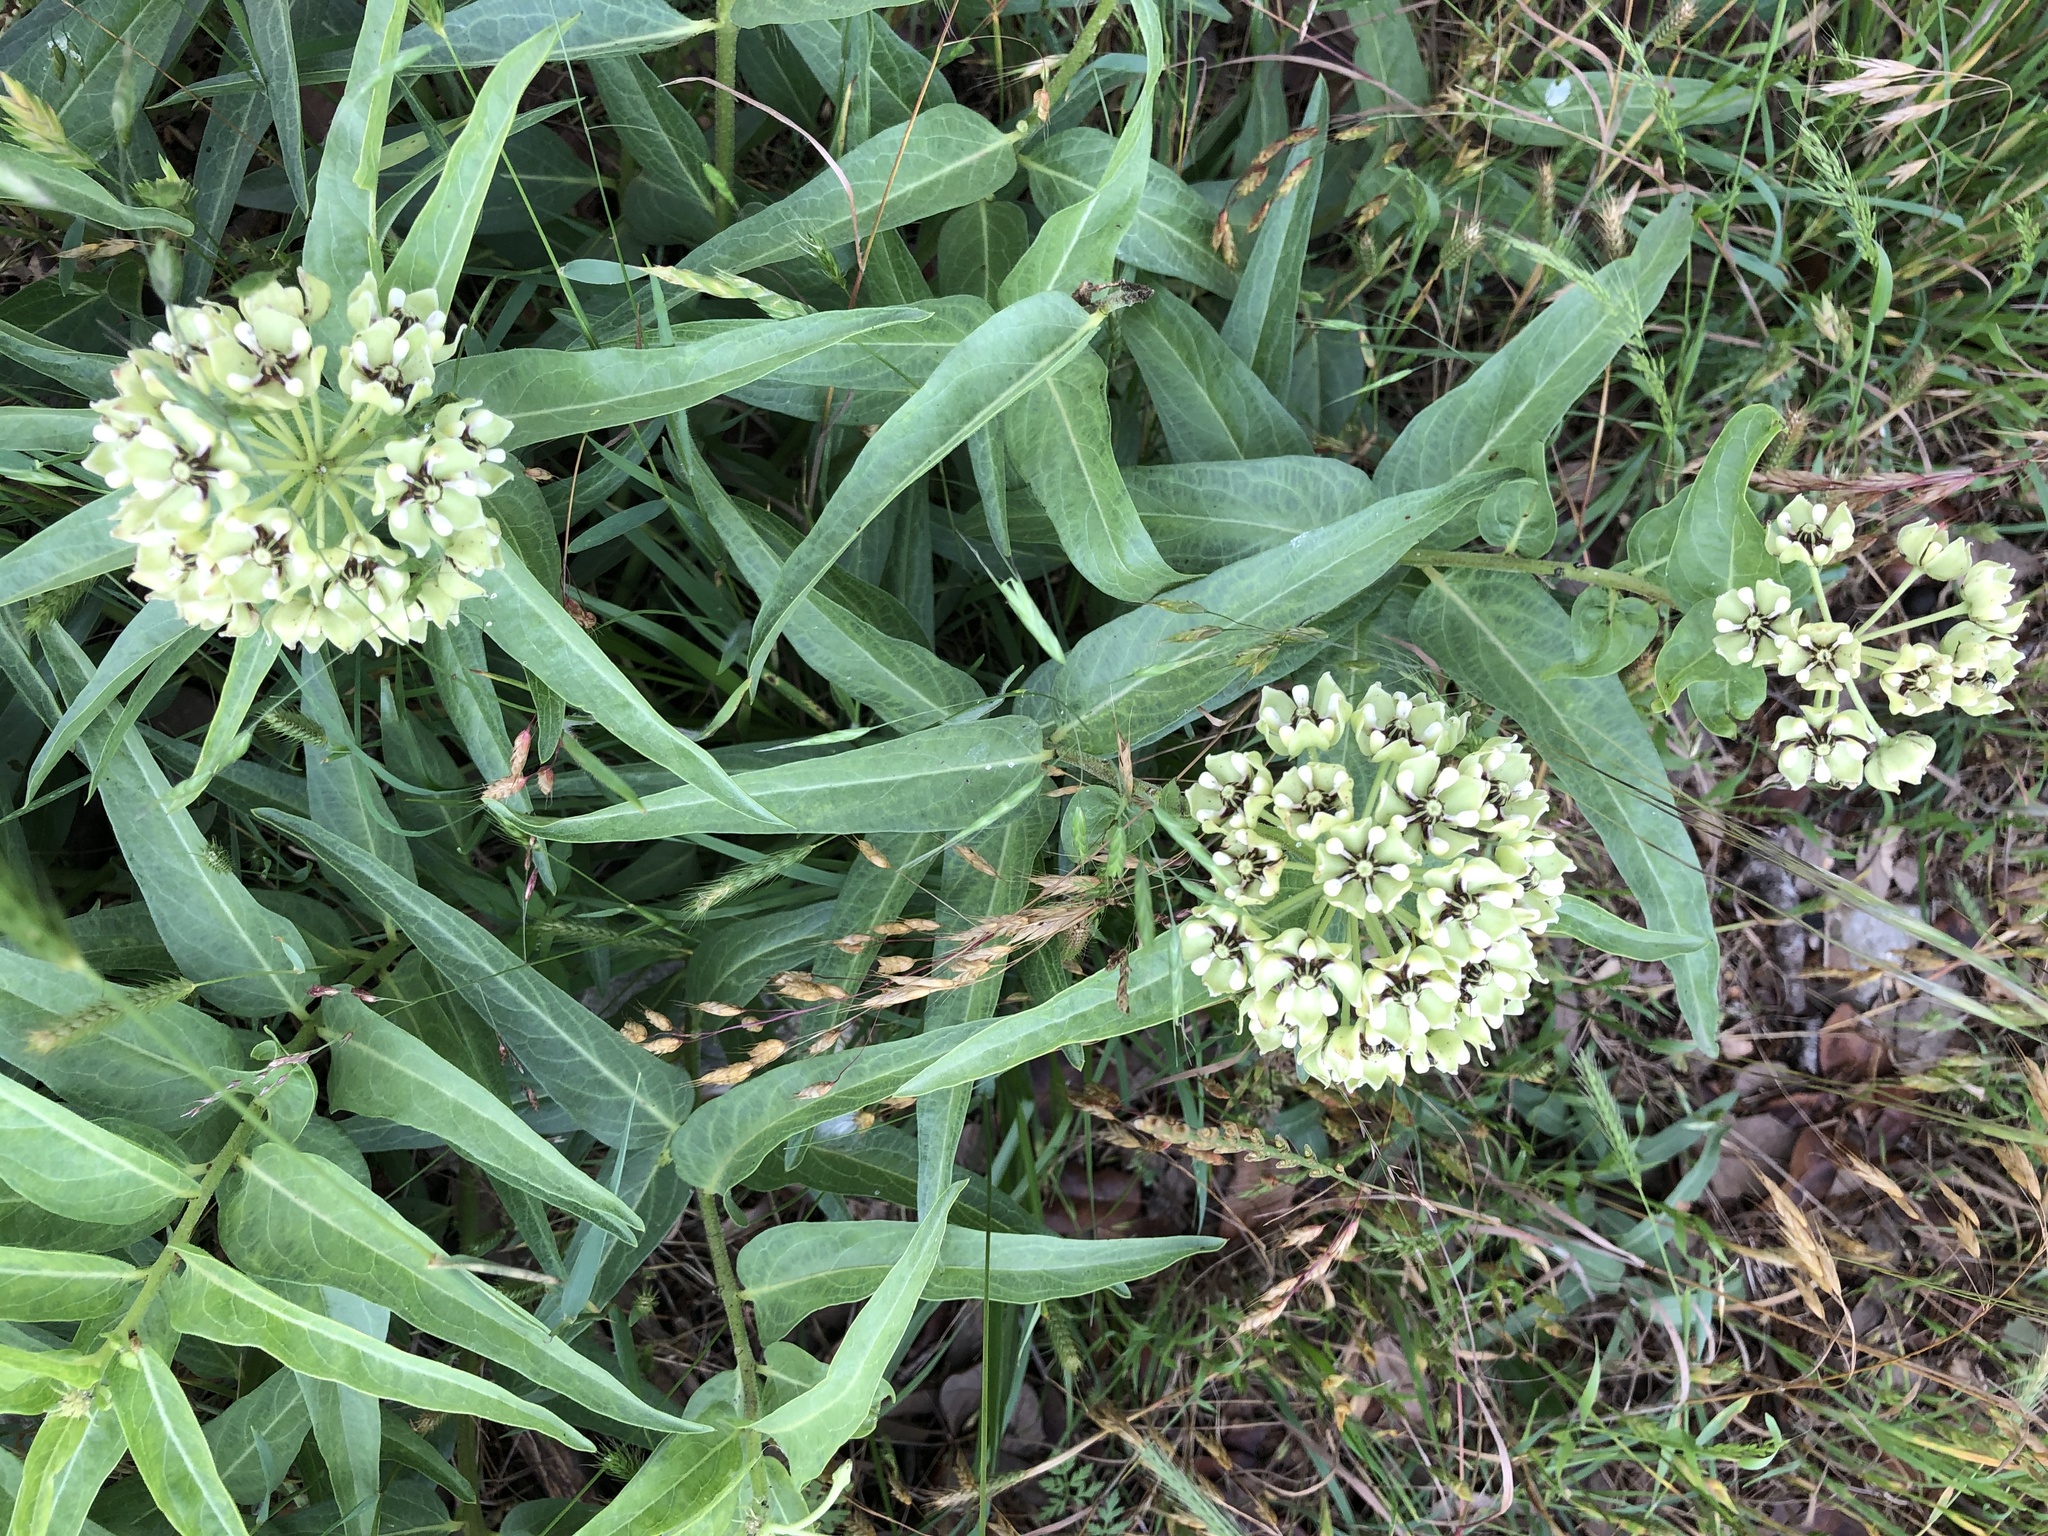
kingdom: Plantae
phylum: Tracheophyta
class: Magnoliopsida
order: Gentianales
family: Apocynaceae
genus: Asclepias
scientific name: Asclepias asperula
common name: Antelope horns
